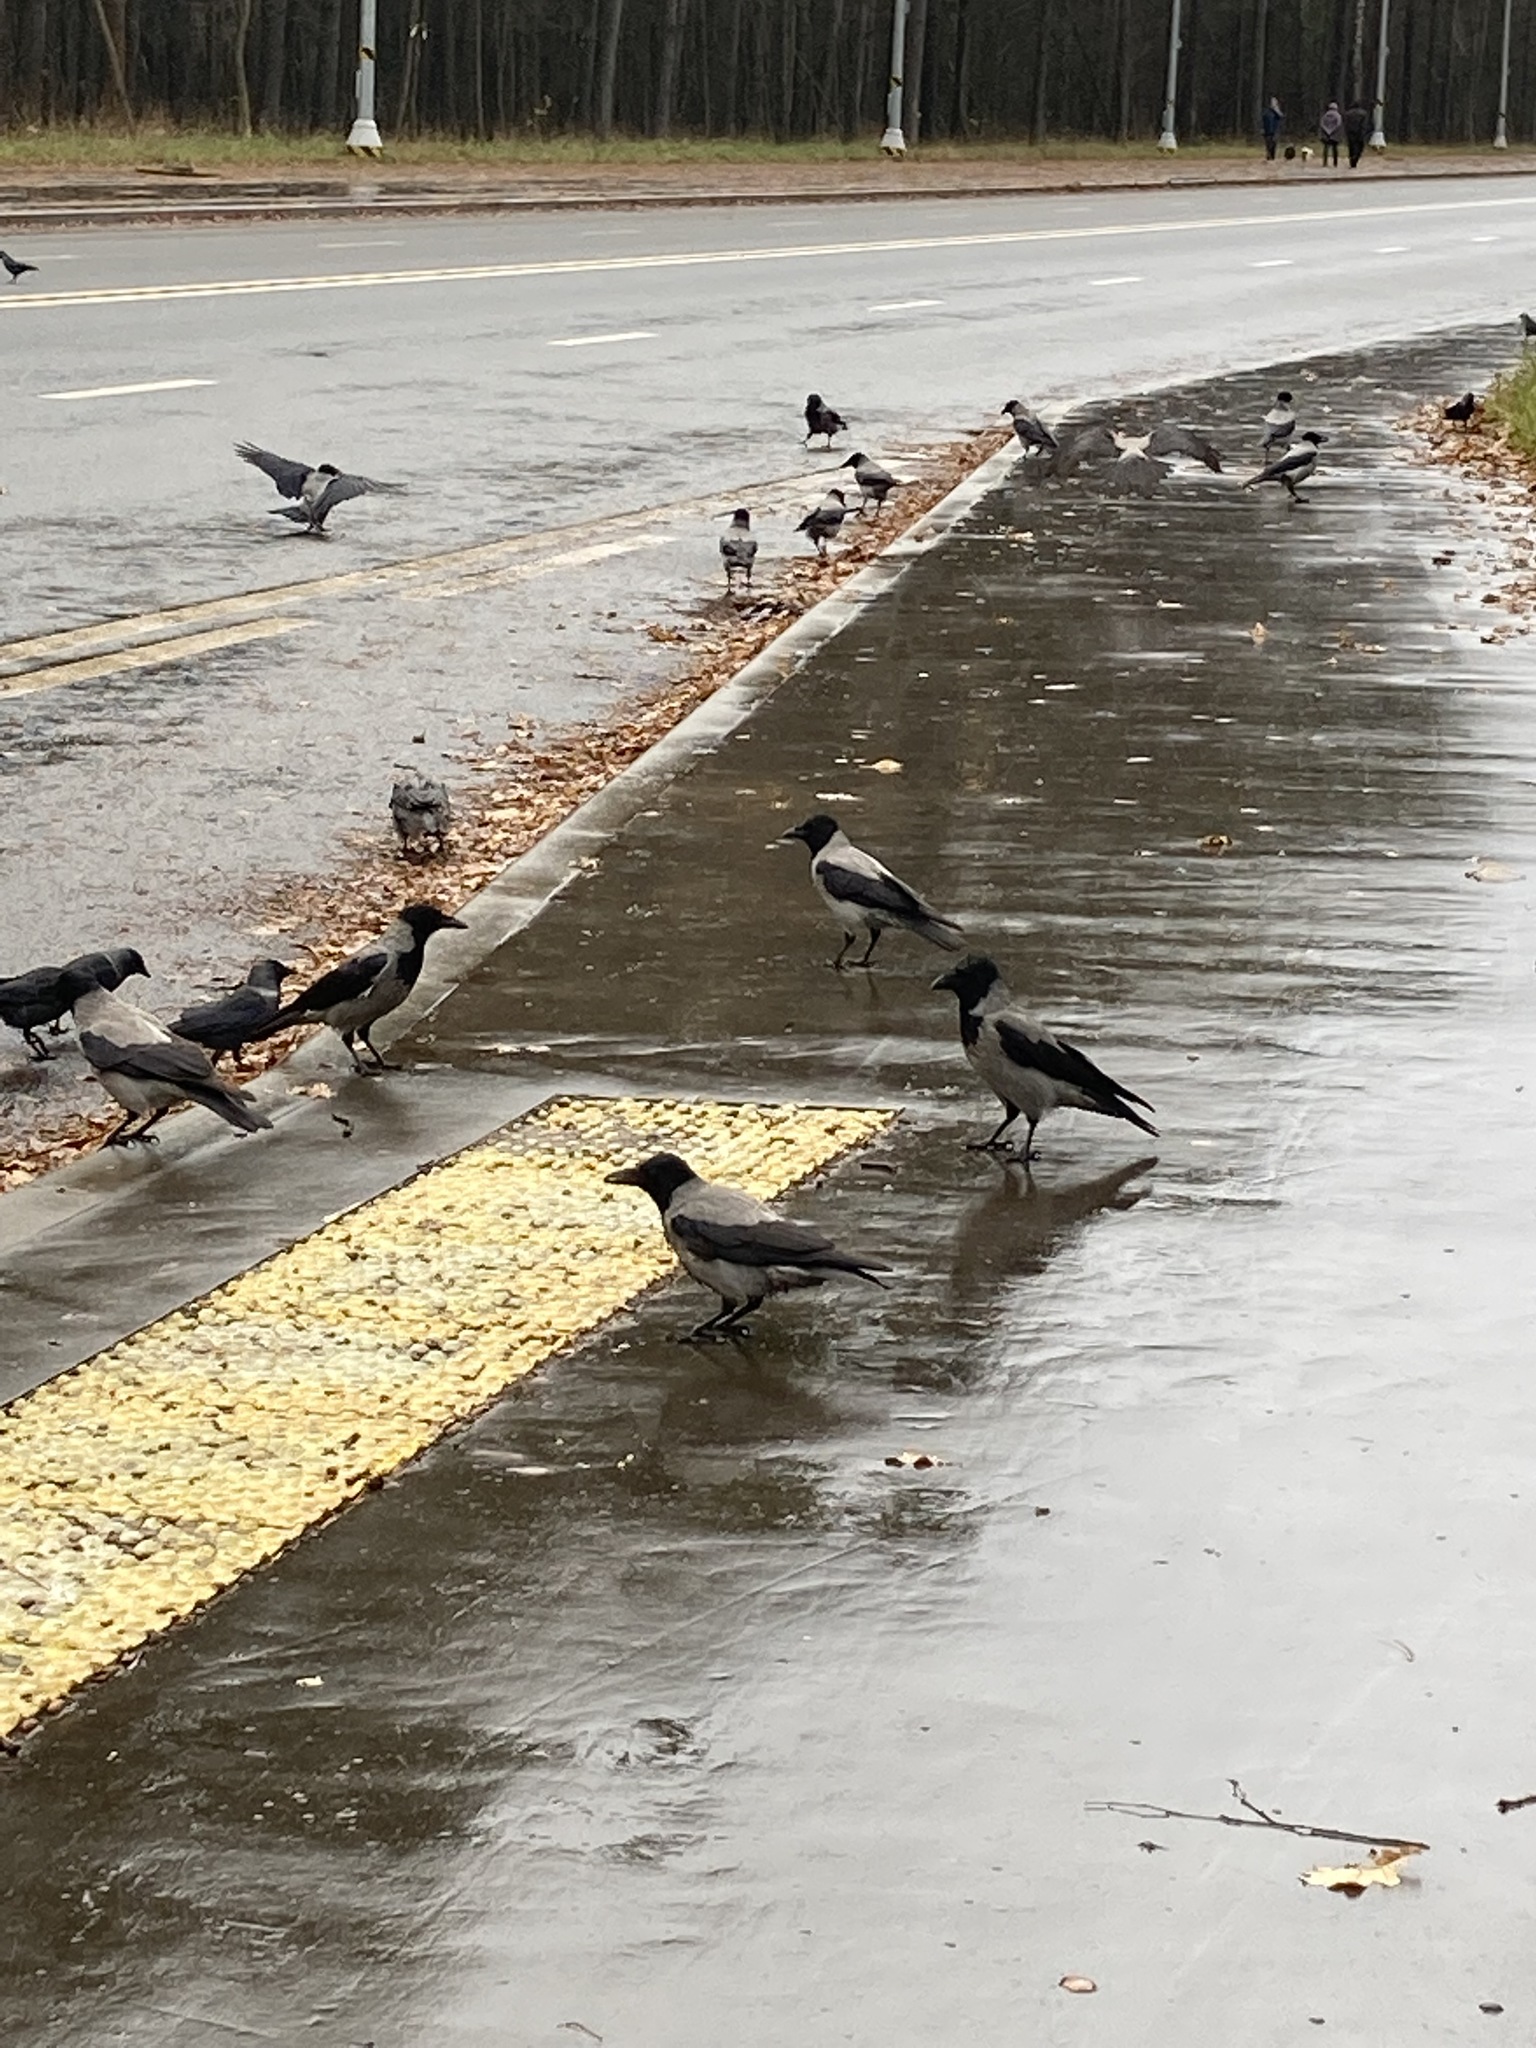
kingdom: Animalia
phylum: Chordata
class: Aves
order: Passeriformes
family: Corvidae
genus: Corvus
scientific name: Corvus cornix
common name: Hooded crow
